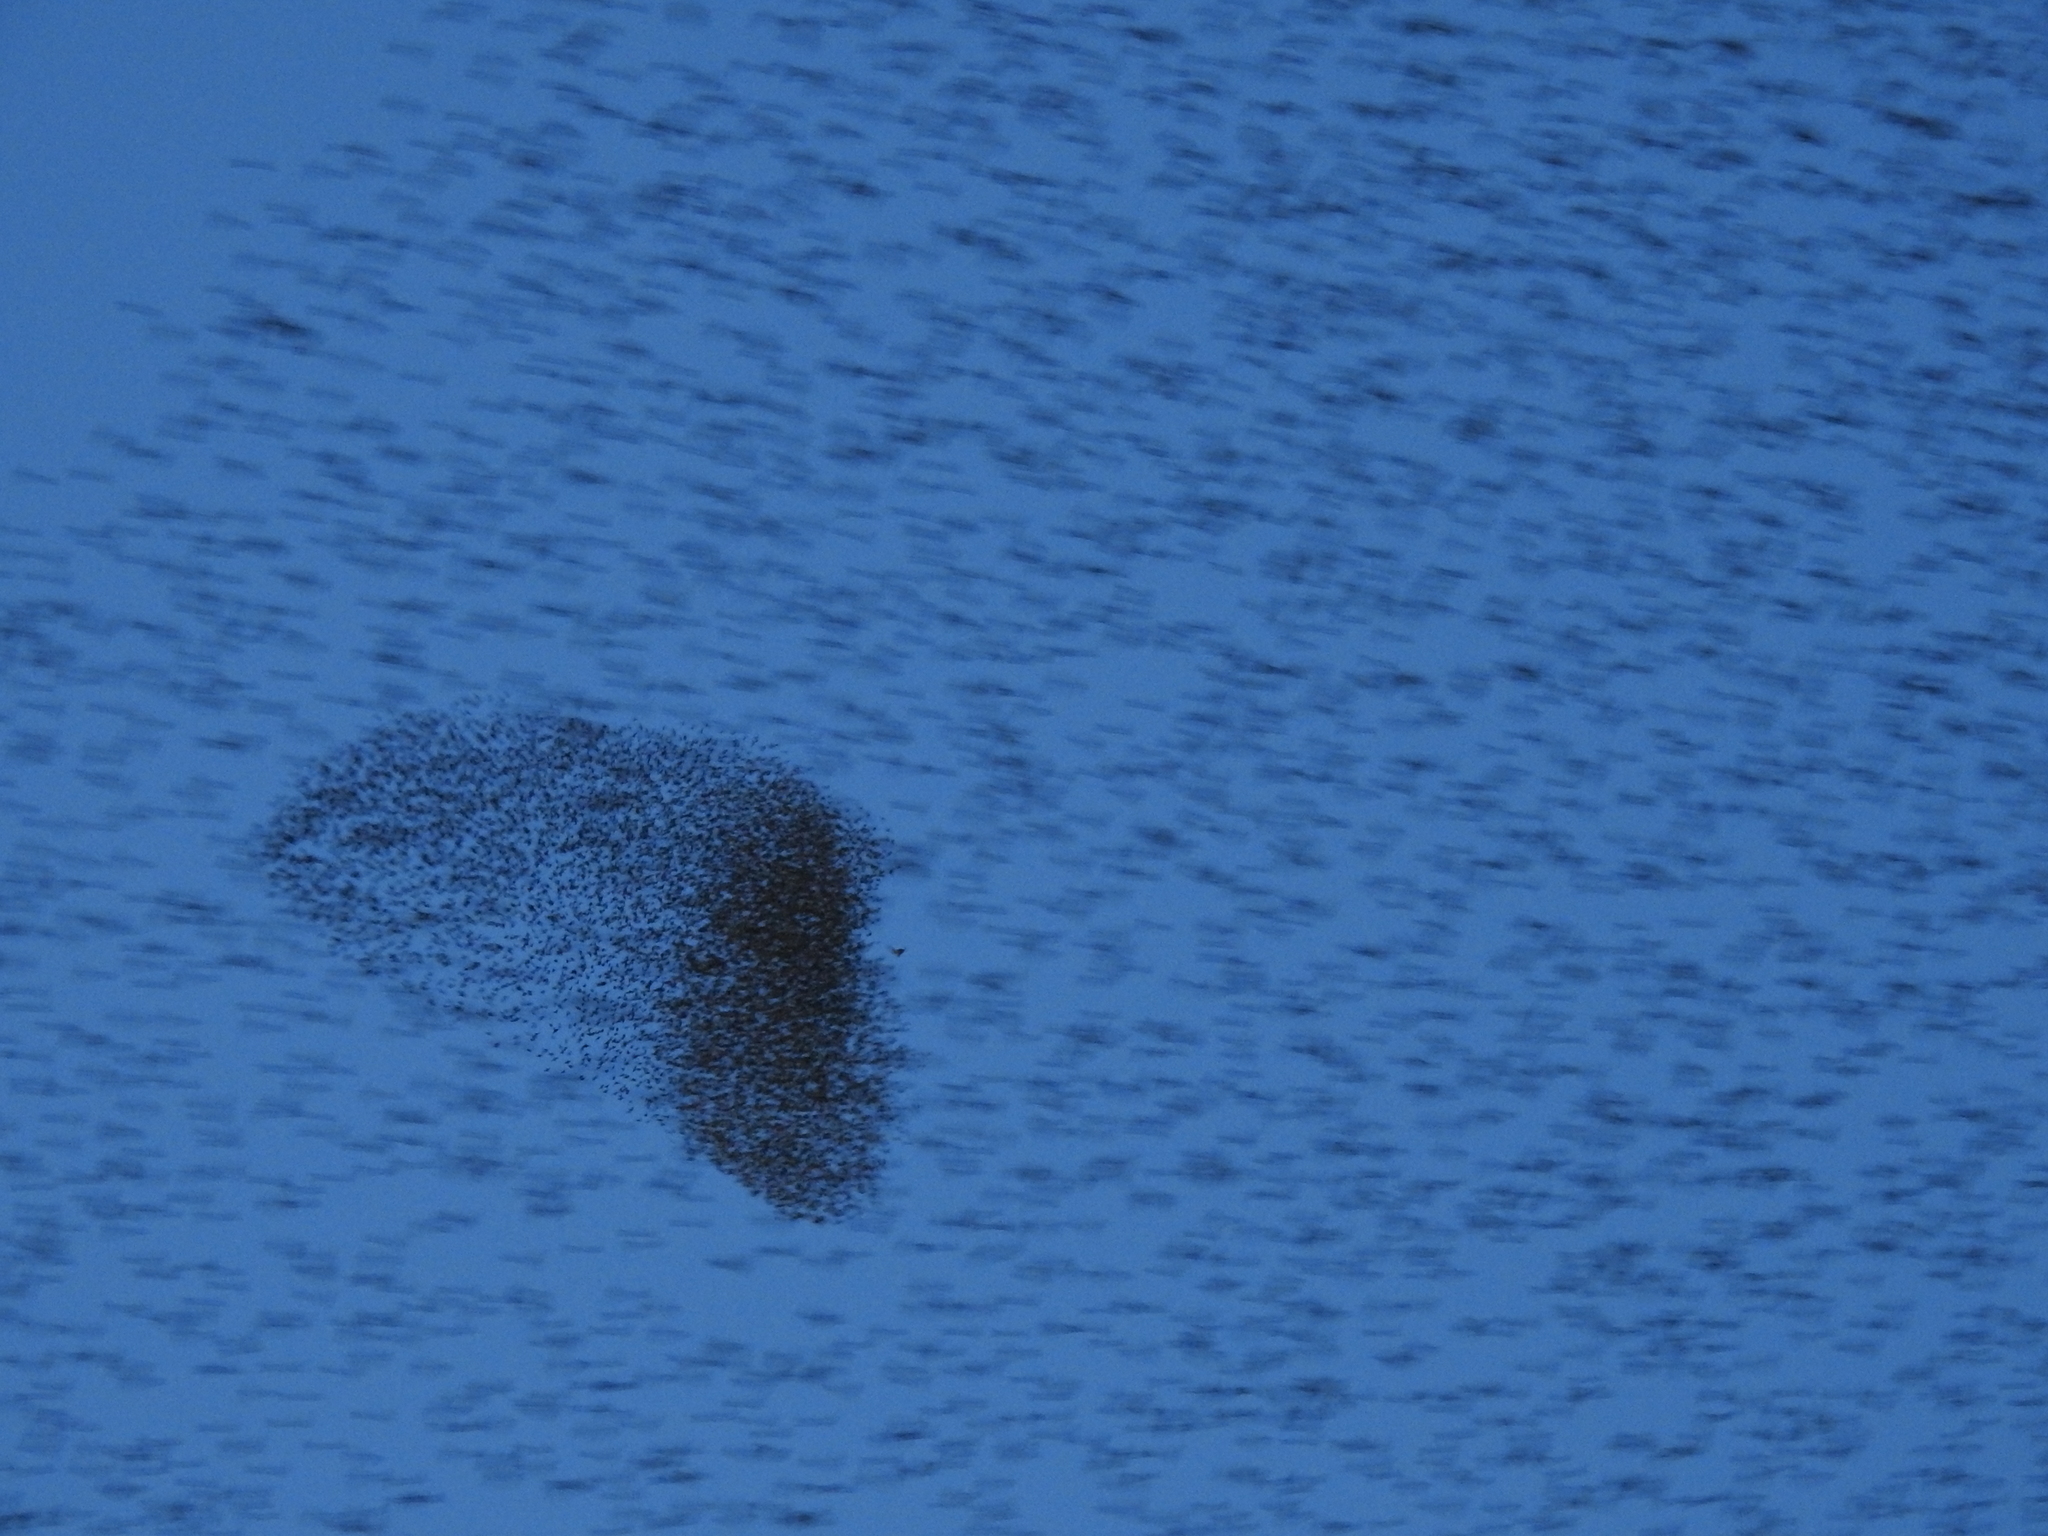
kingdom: Animalia
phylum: Chordata
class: Aves
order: Passeriformes
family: Sturnidae
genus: Sturnus
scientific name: Sturnus vulgaris
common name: Common starling
